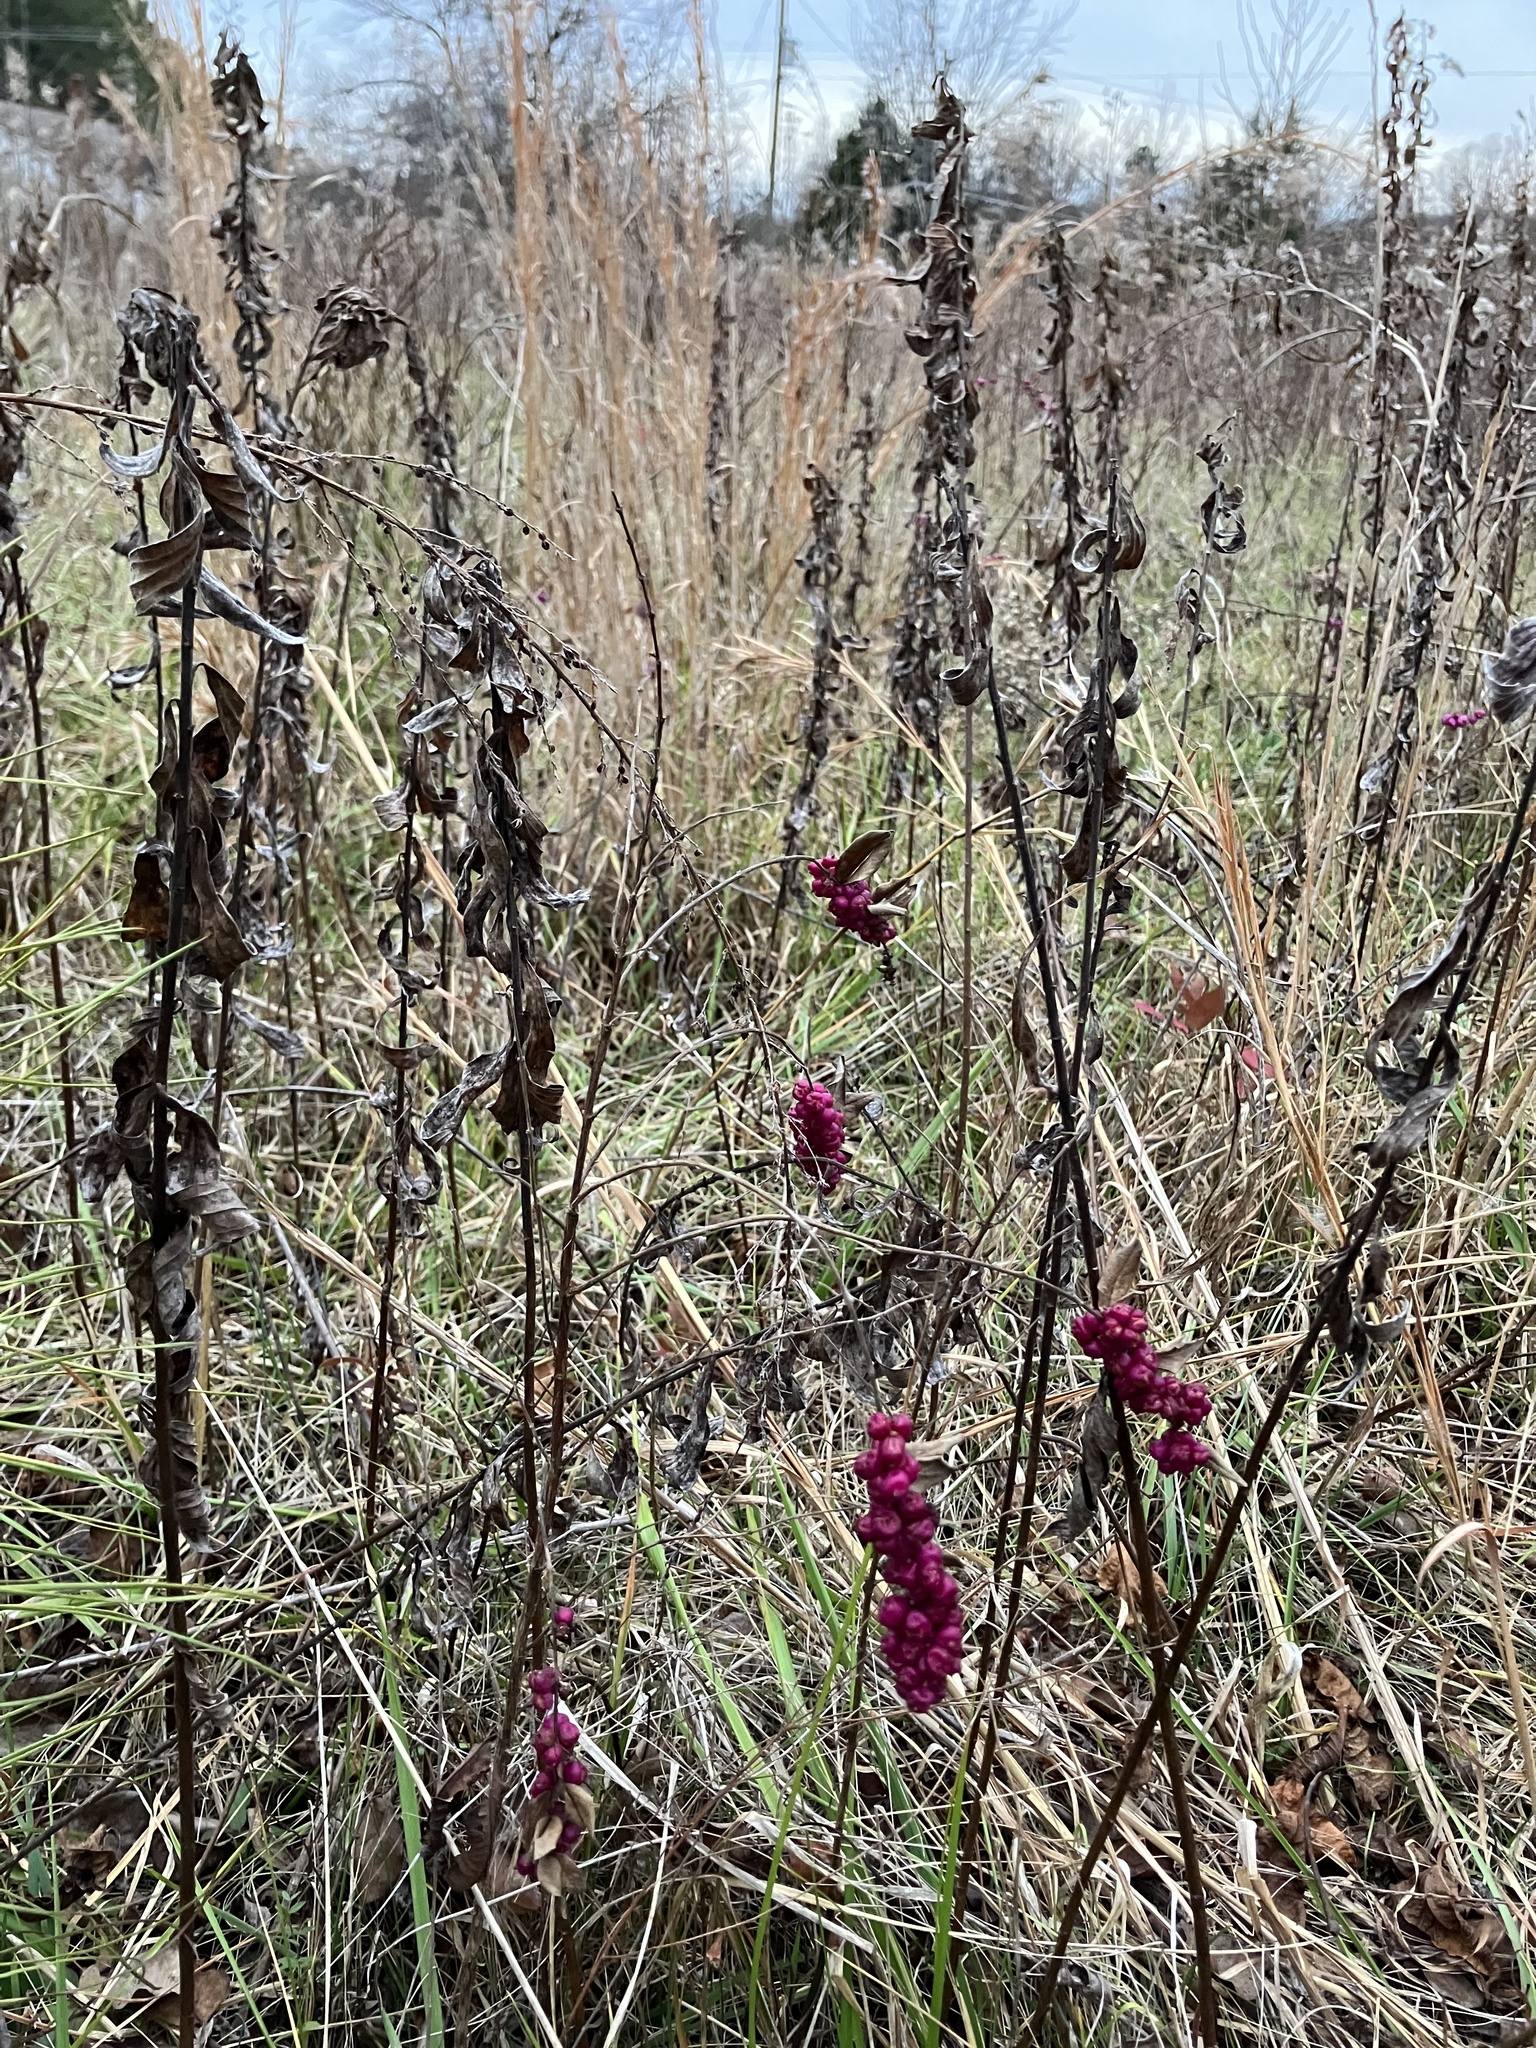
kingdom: Plantae
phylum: Tracheophyta
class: Magnoliopsida
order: Dipsacales
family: Caprifoliaceae
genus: Symphoricarpos
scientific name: Symphoricarpos orbiculatus
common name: Coralberry
